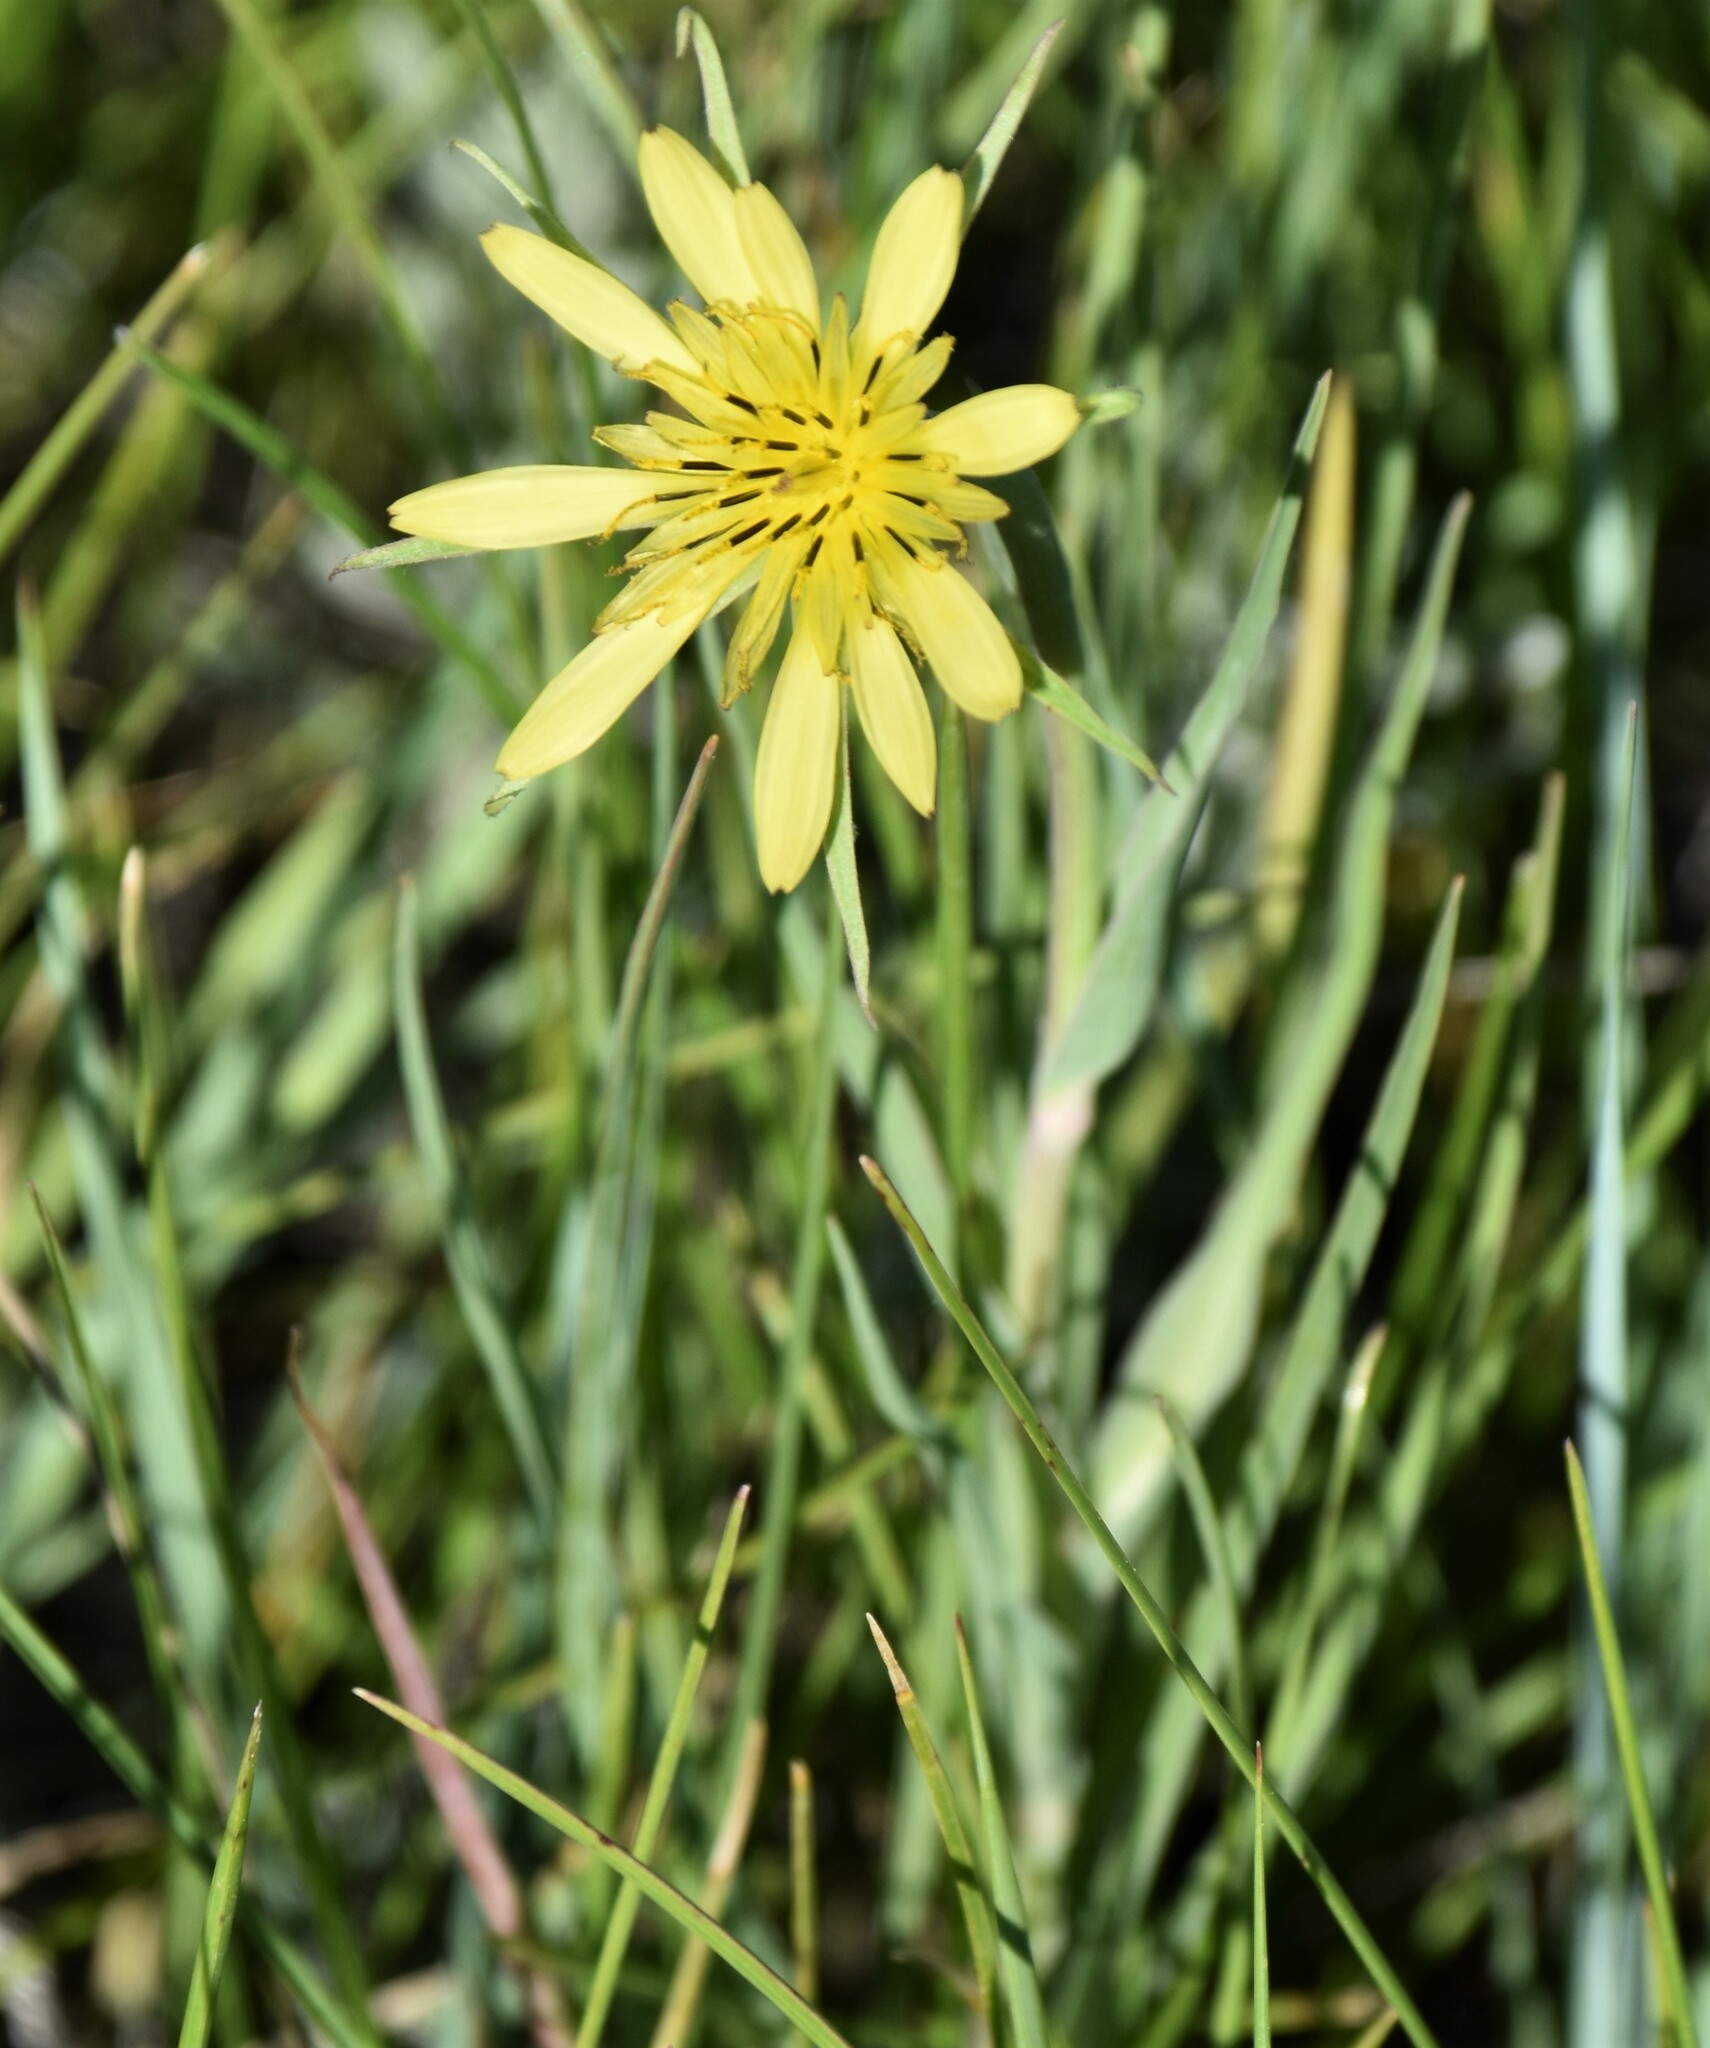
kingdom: Plantae
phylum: Tracheophyta
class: Magnoliopsida
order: Asterales
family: Asteraceae
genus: Tragopogon
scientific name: Tragopogon dubius
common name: Yellow salsify
